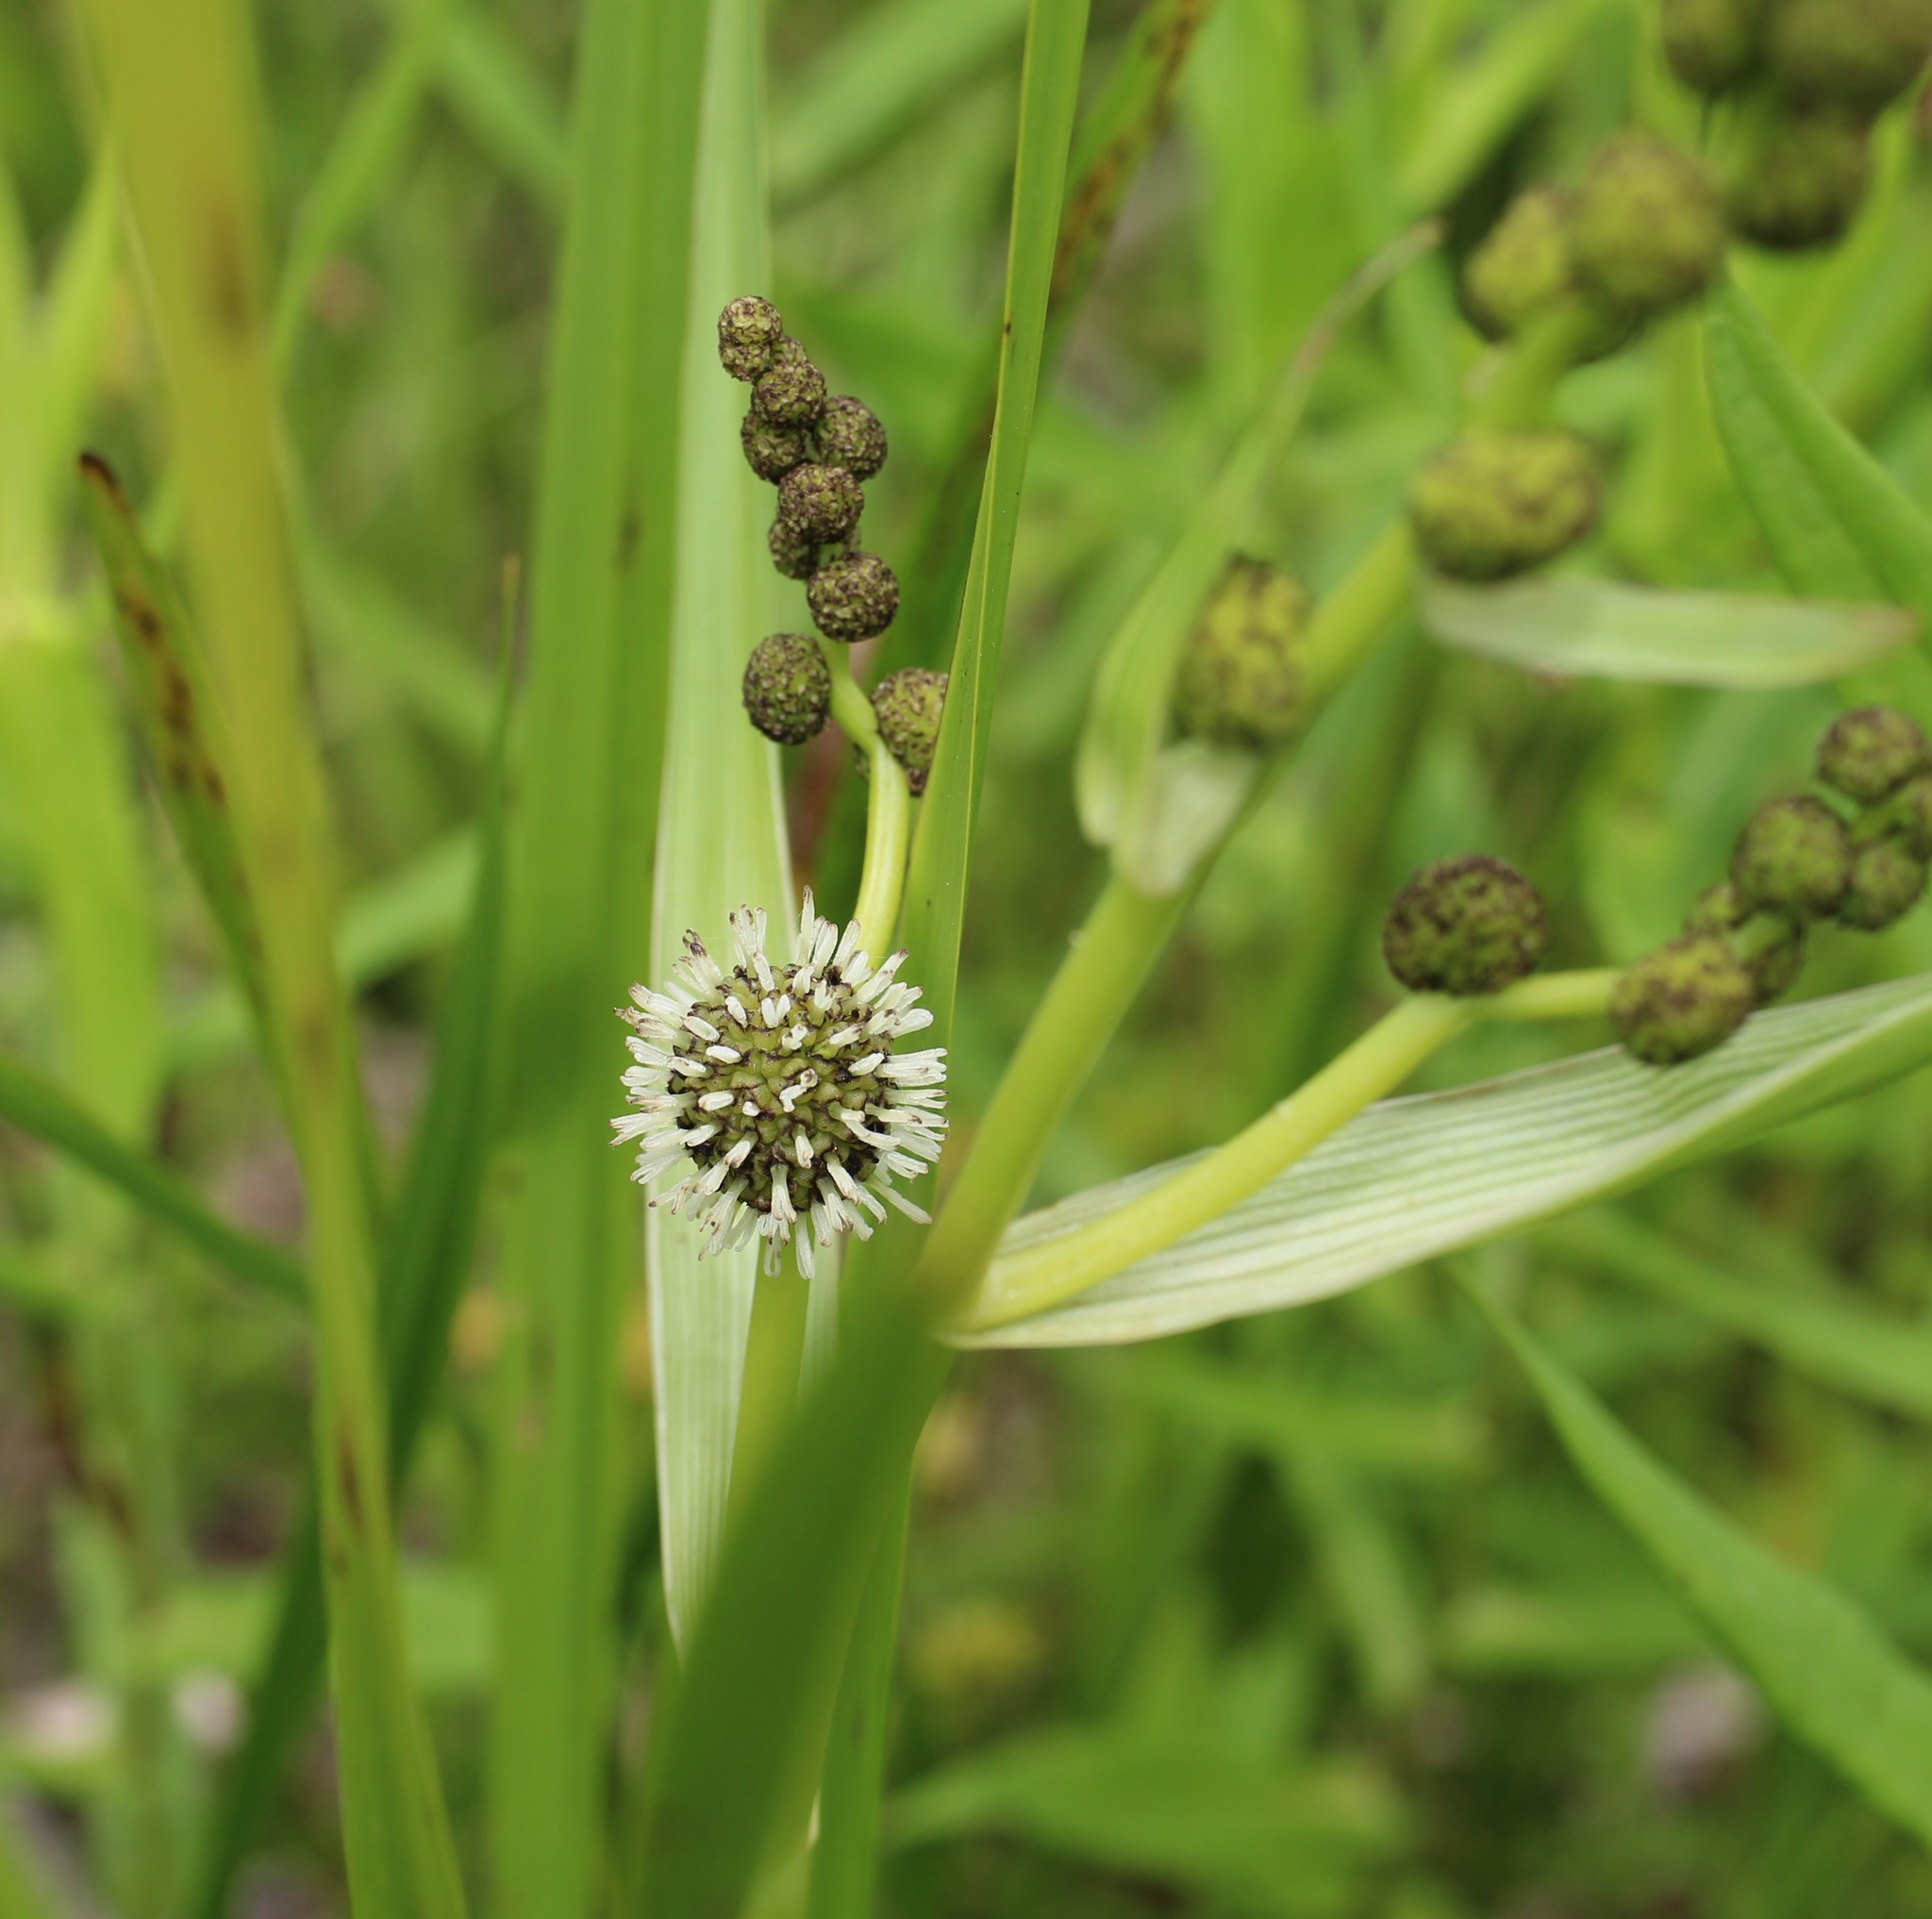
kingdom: Plantae
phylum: Tracheophyta
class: Liliopsida
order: Poales
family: Typhaceae
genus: Sparganium
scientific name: Sparganium eurycarpum
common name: Broad-fruited burreed
